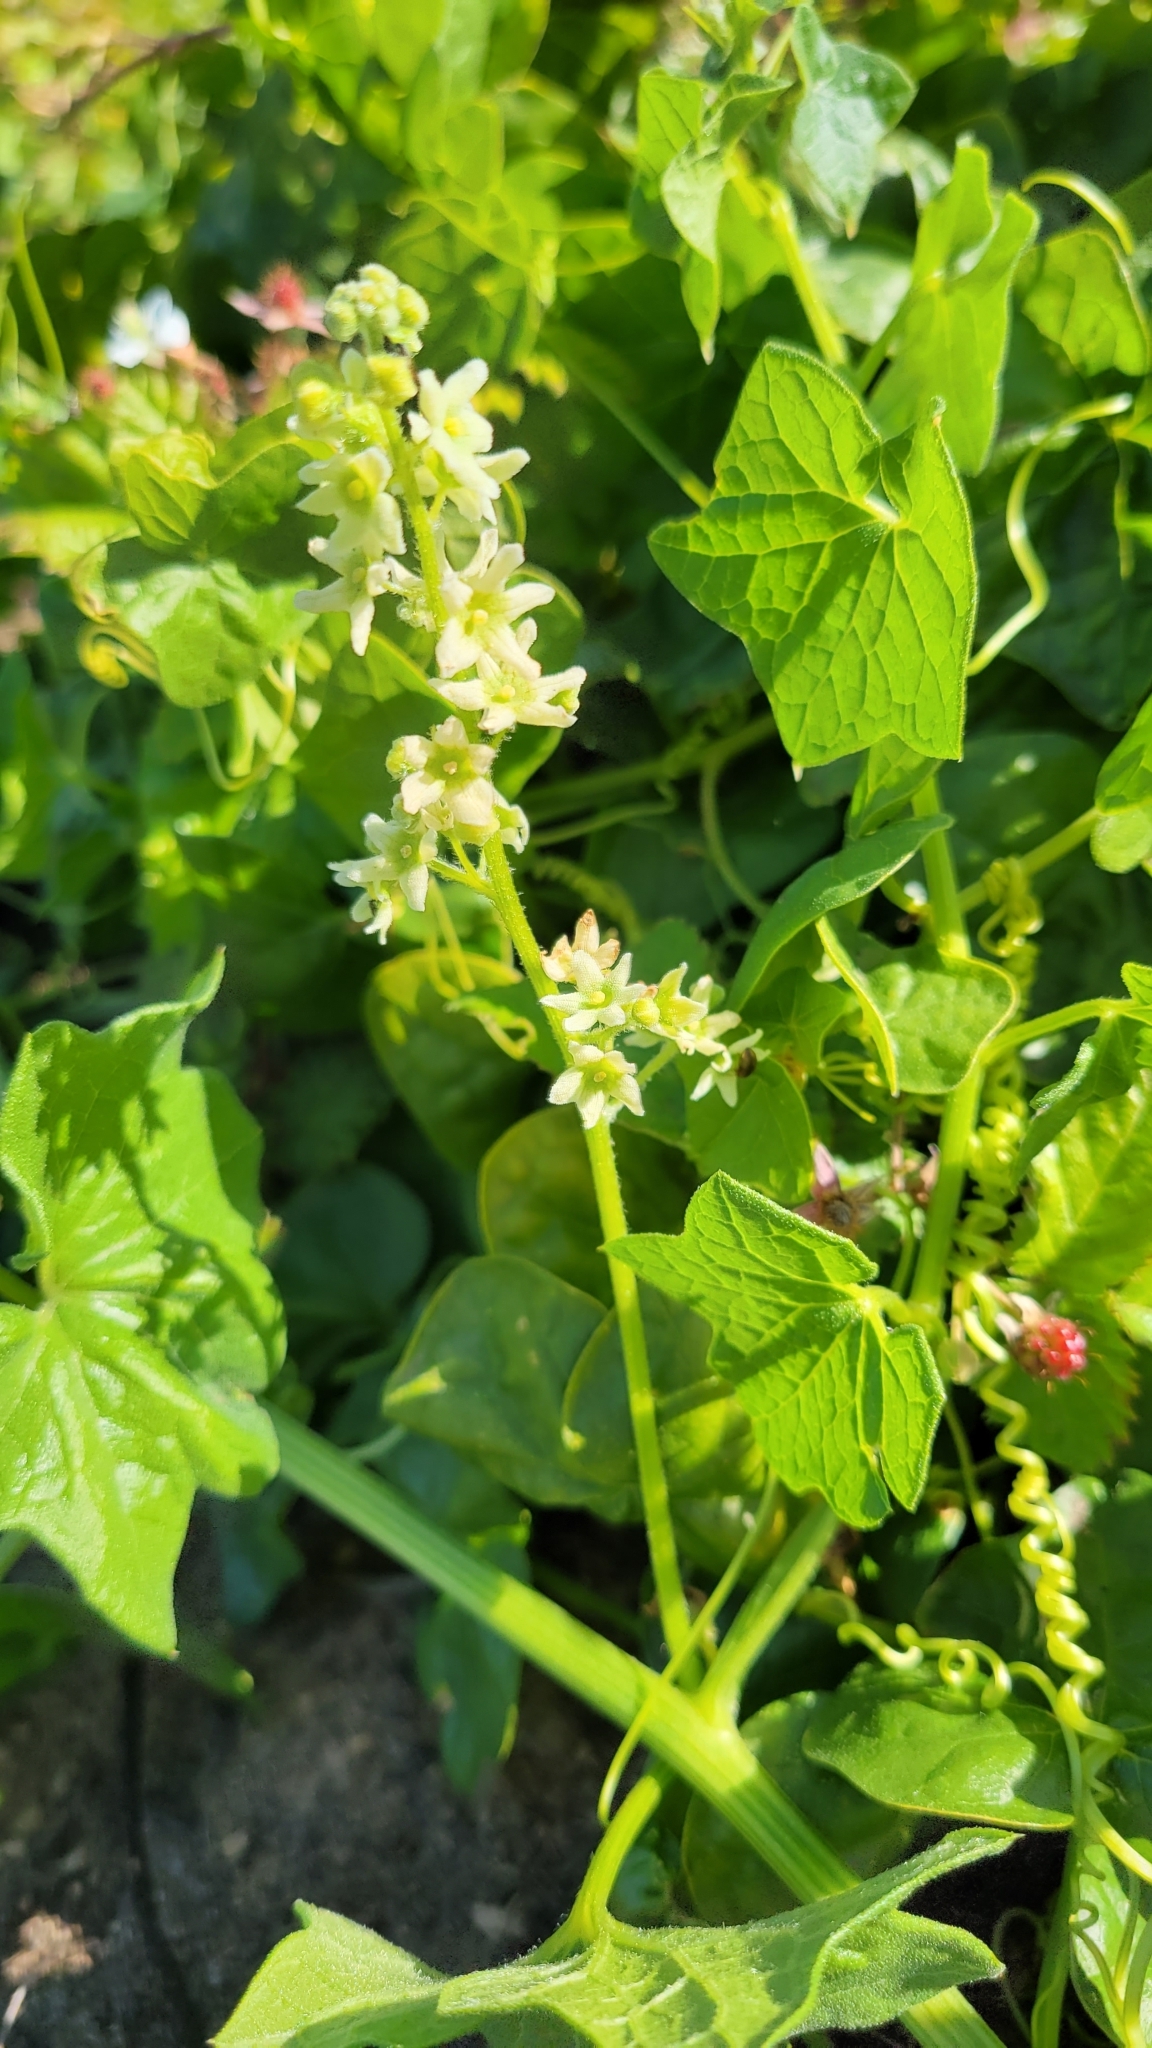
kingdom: Plantae
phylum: Tracheophyta
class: Magnoliopsida
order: Cucurbitales
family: Cucurbitaceae
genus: Marah
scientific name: Marah fabacea
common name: California manroot
